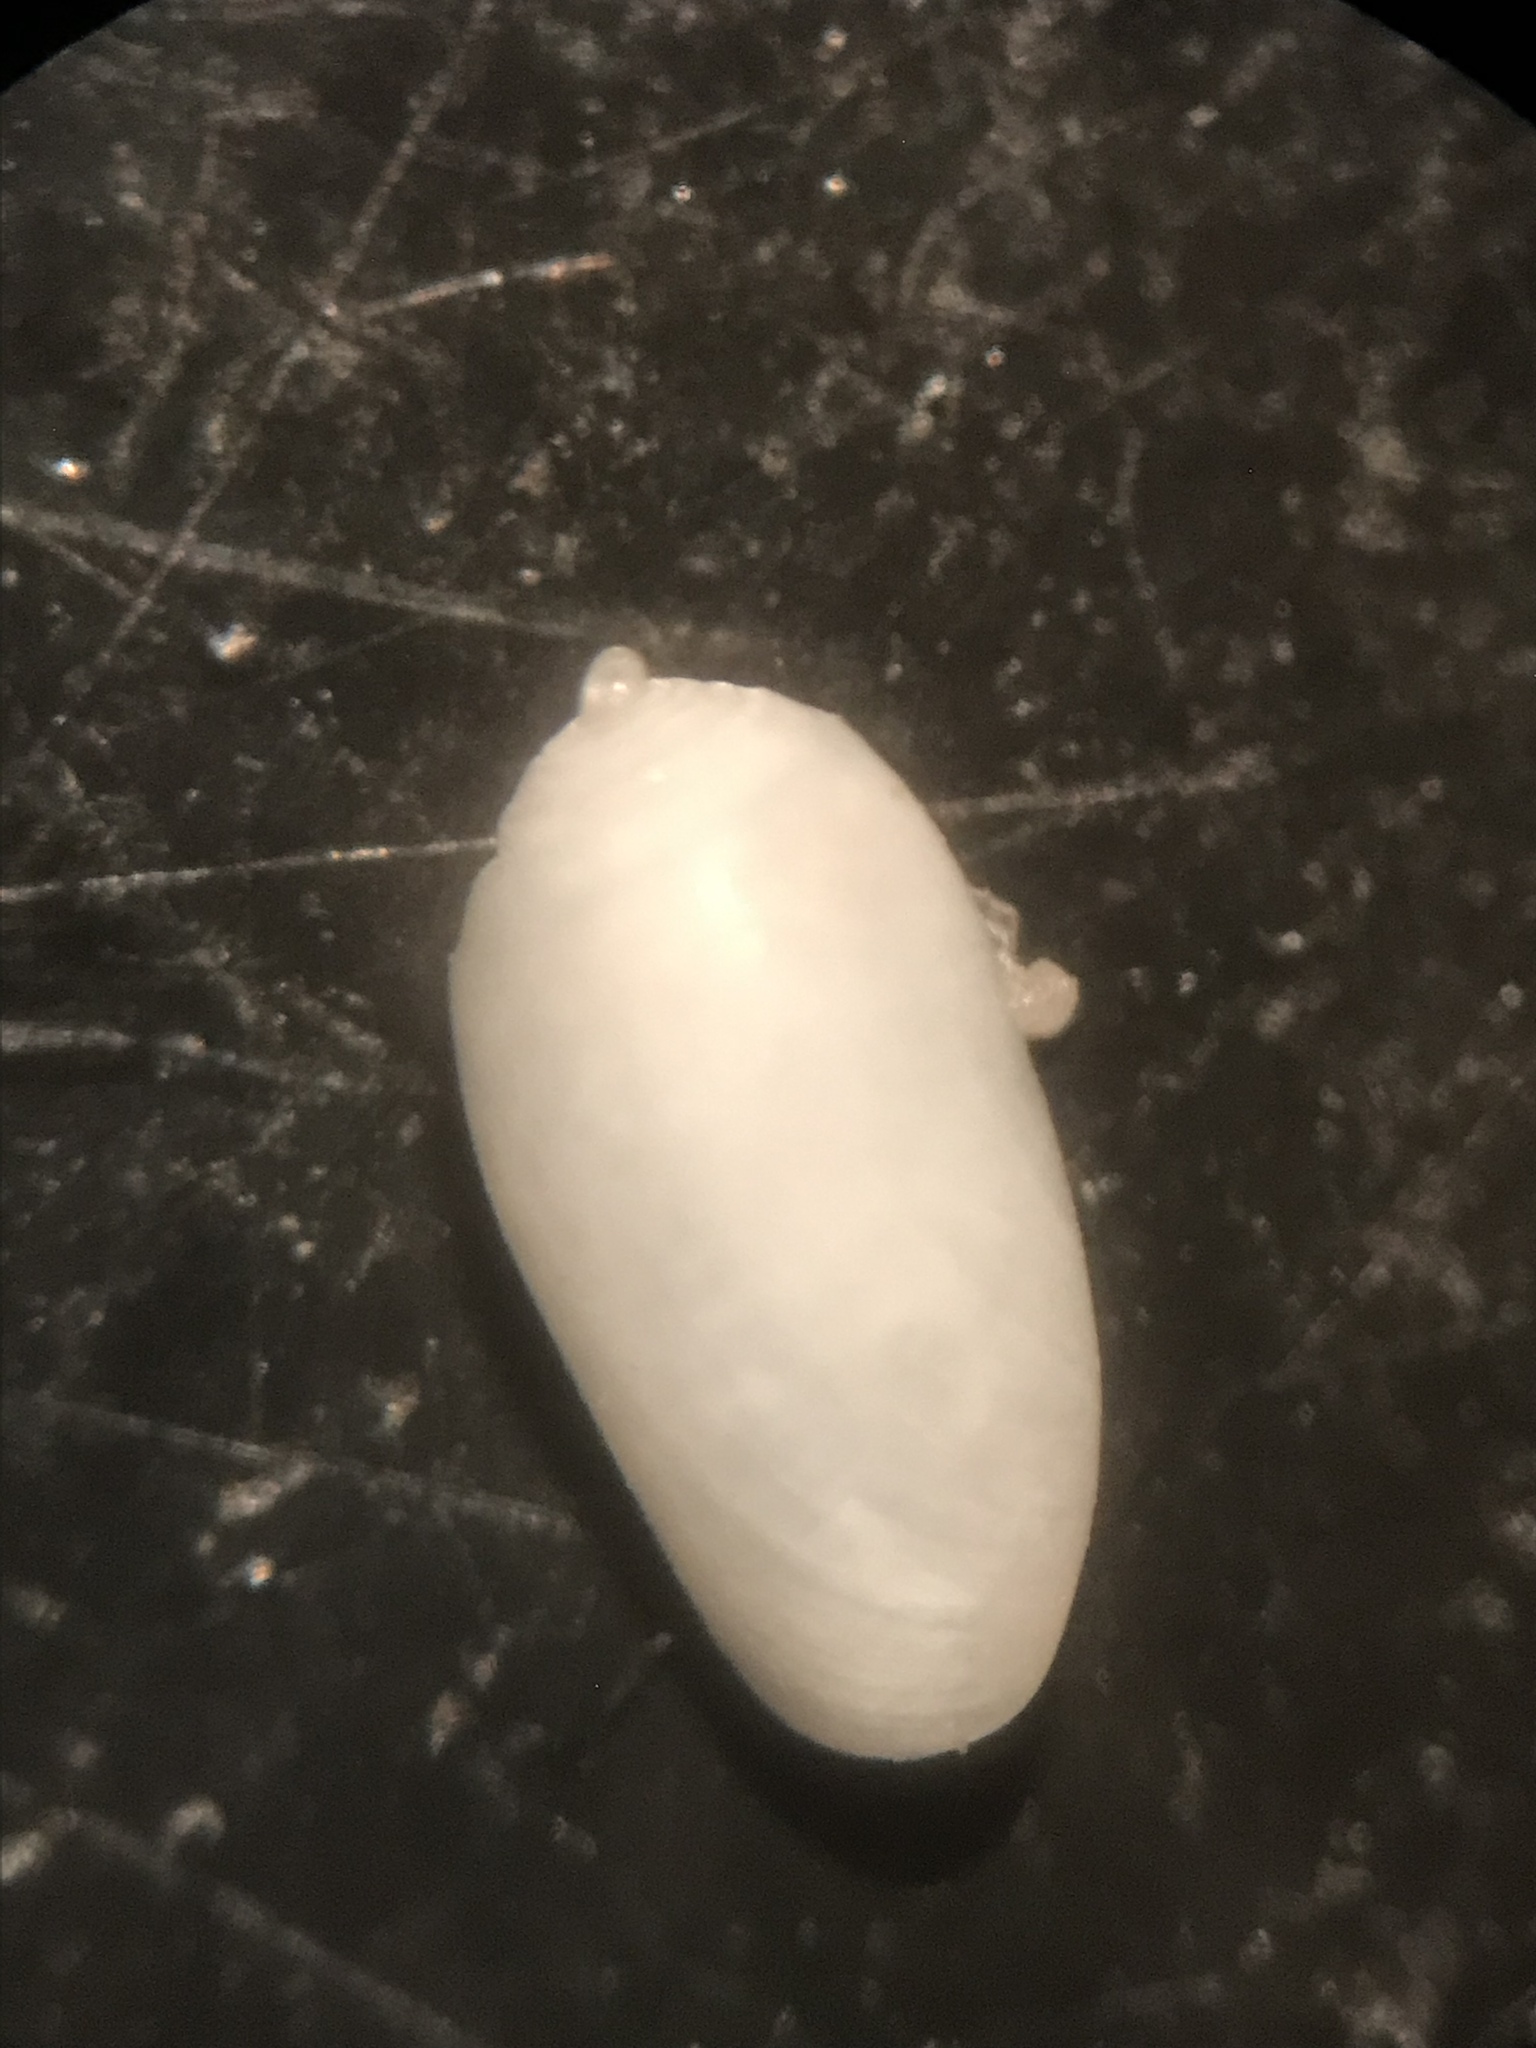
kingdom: Animalia
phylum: Mollusca
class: Gastropoda
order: Cephalaspidea
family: Tornatinidae
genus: Acteocina
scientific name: Acteocina canaliculata
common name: Channeled barrel-bubble
